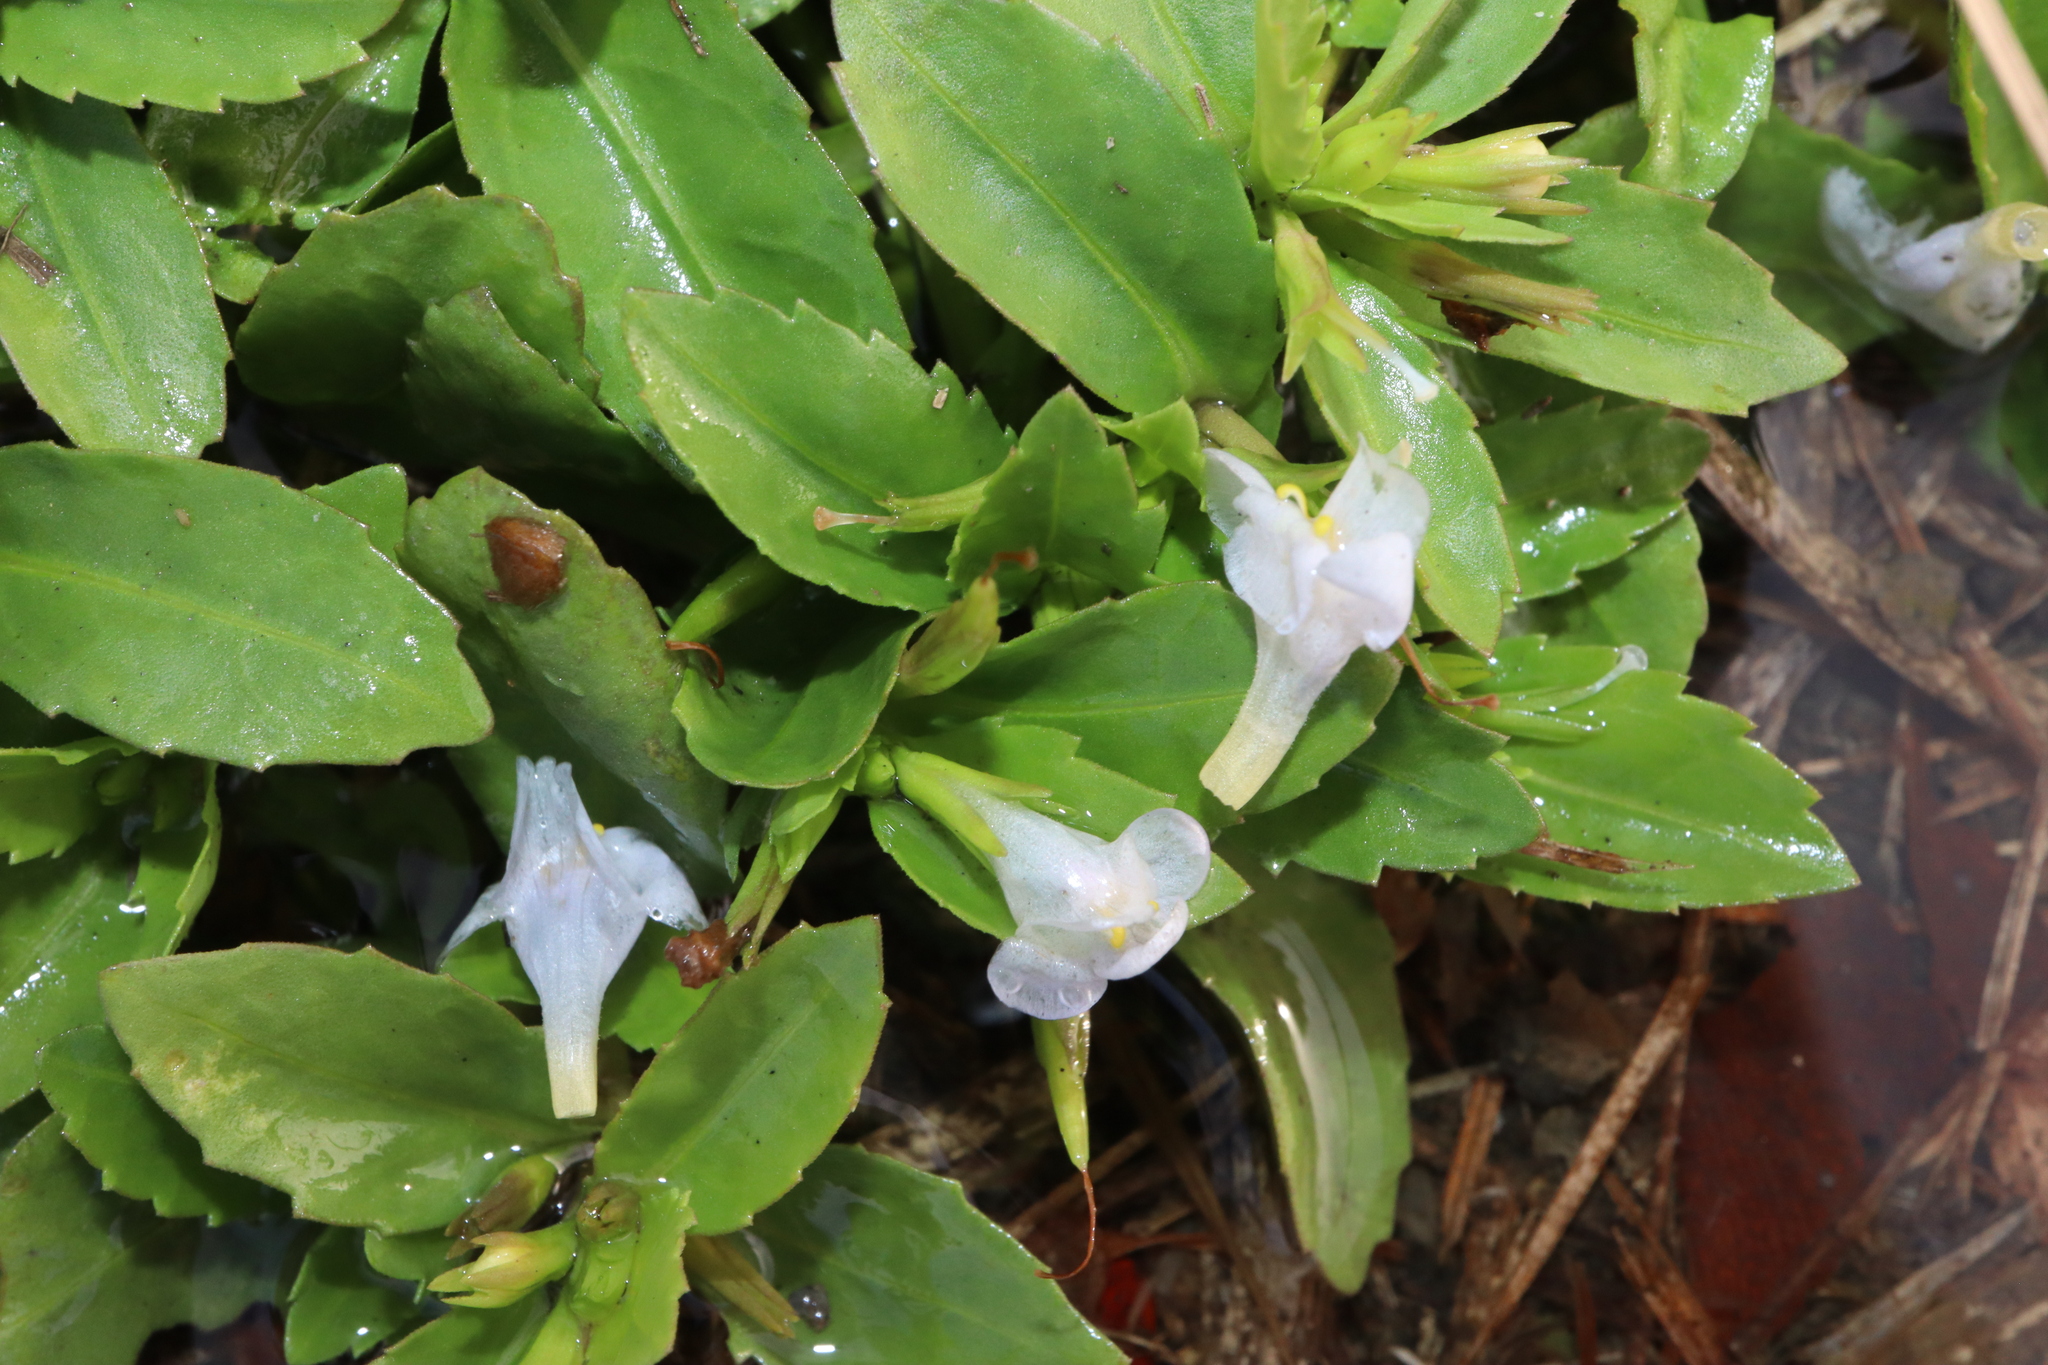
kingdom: Plantae
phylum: Tracheophyta
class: Magnoliopsida
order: Lamiales
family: Linderniaceae
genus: Bonnaya
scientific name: Bonnaya antipoda
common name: Sparrow false pimpernel
